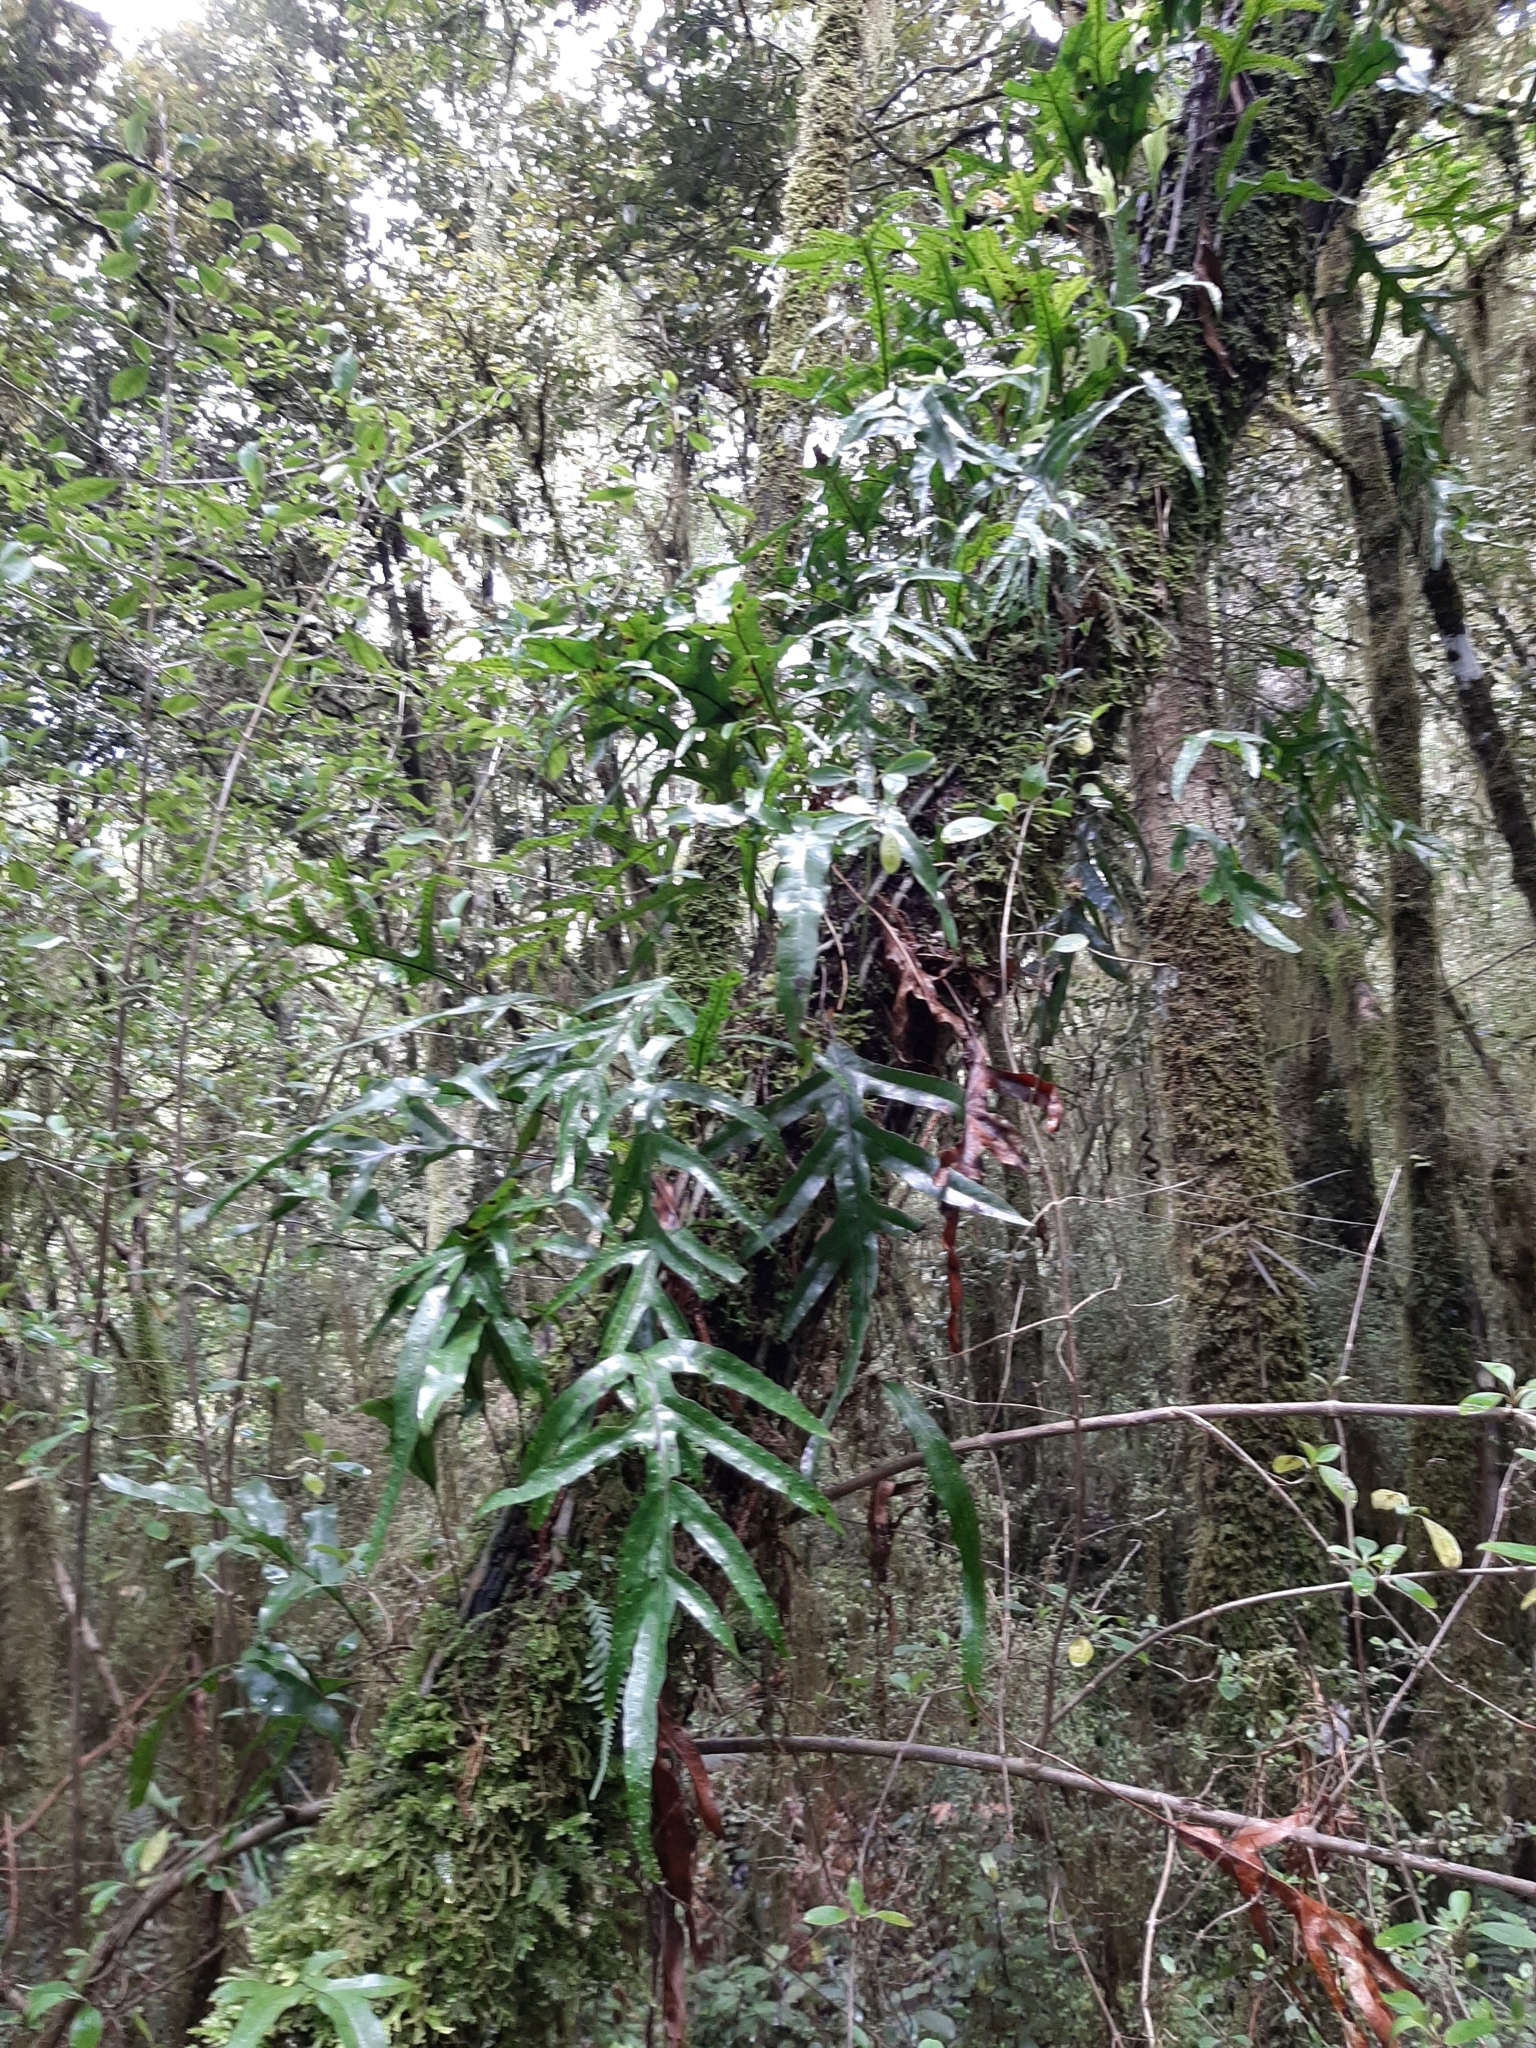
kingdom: Plantae
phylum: Tracheophyta
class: Polypodiopsida
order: Polypodiales
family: Polypodiaceae
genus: Lecanopteris
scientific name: Lecanopteris pustulata
